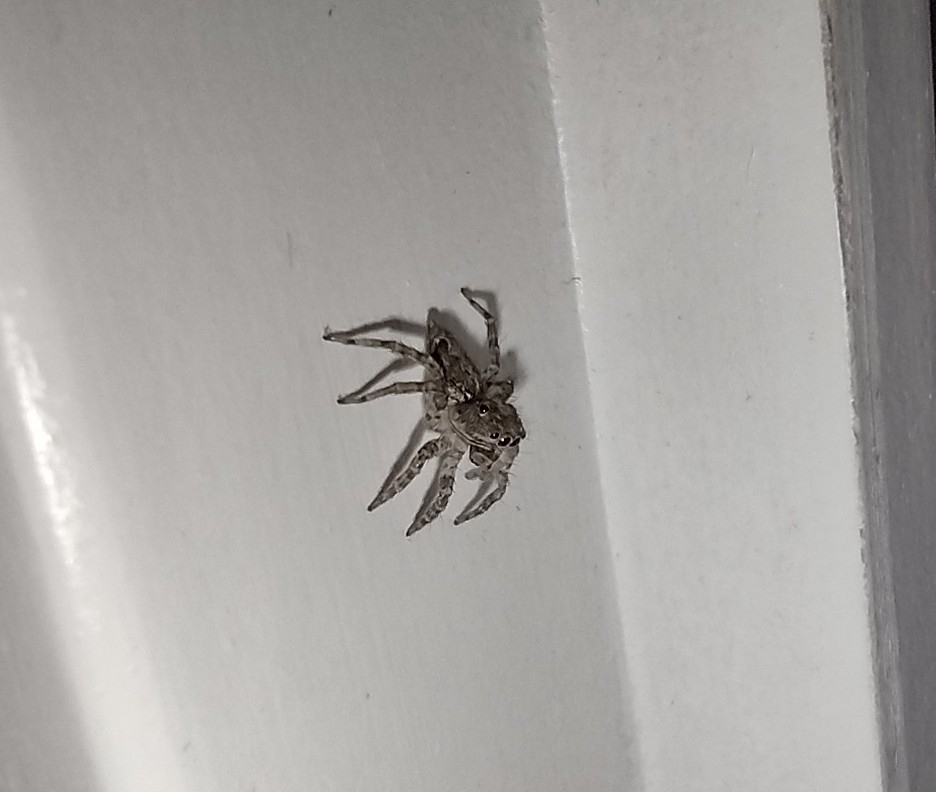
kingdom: Animalia
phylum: Arthropoda
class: Arachnida
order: Araneae
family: Salticidae
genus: Saitis
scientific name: Saitis variegatus
